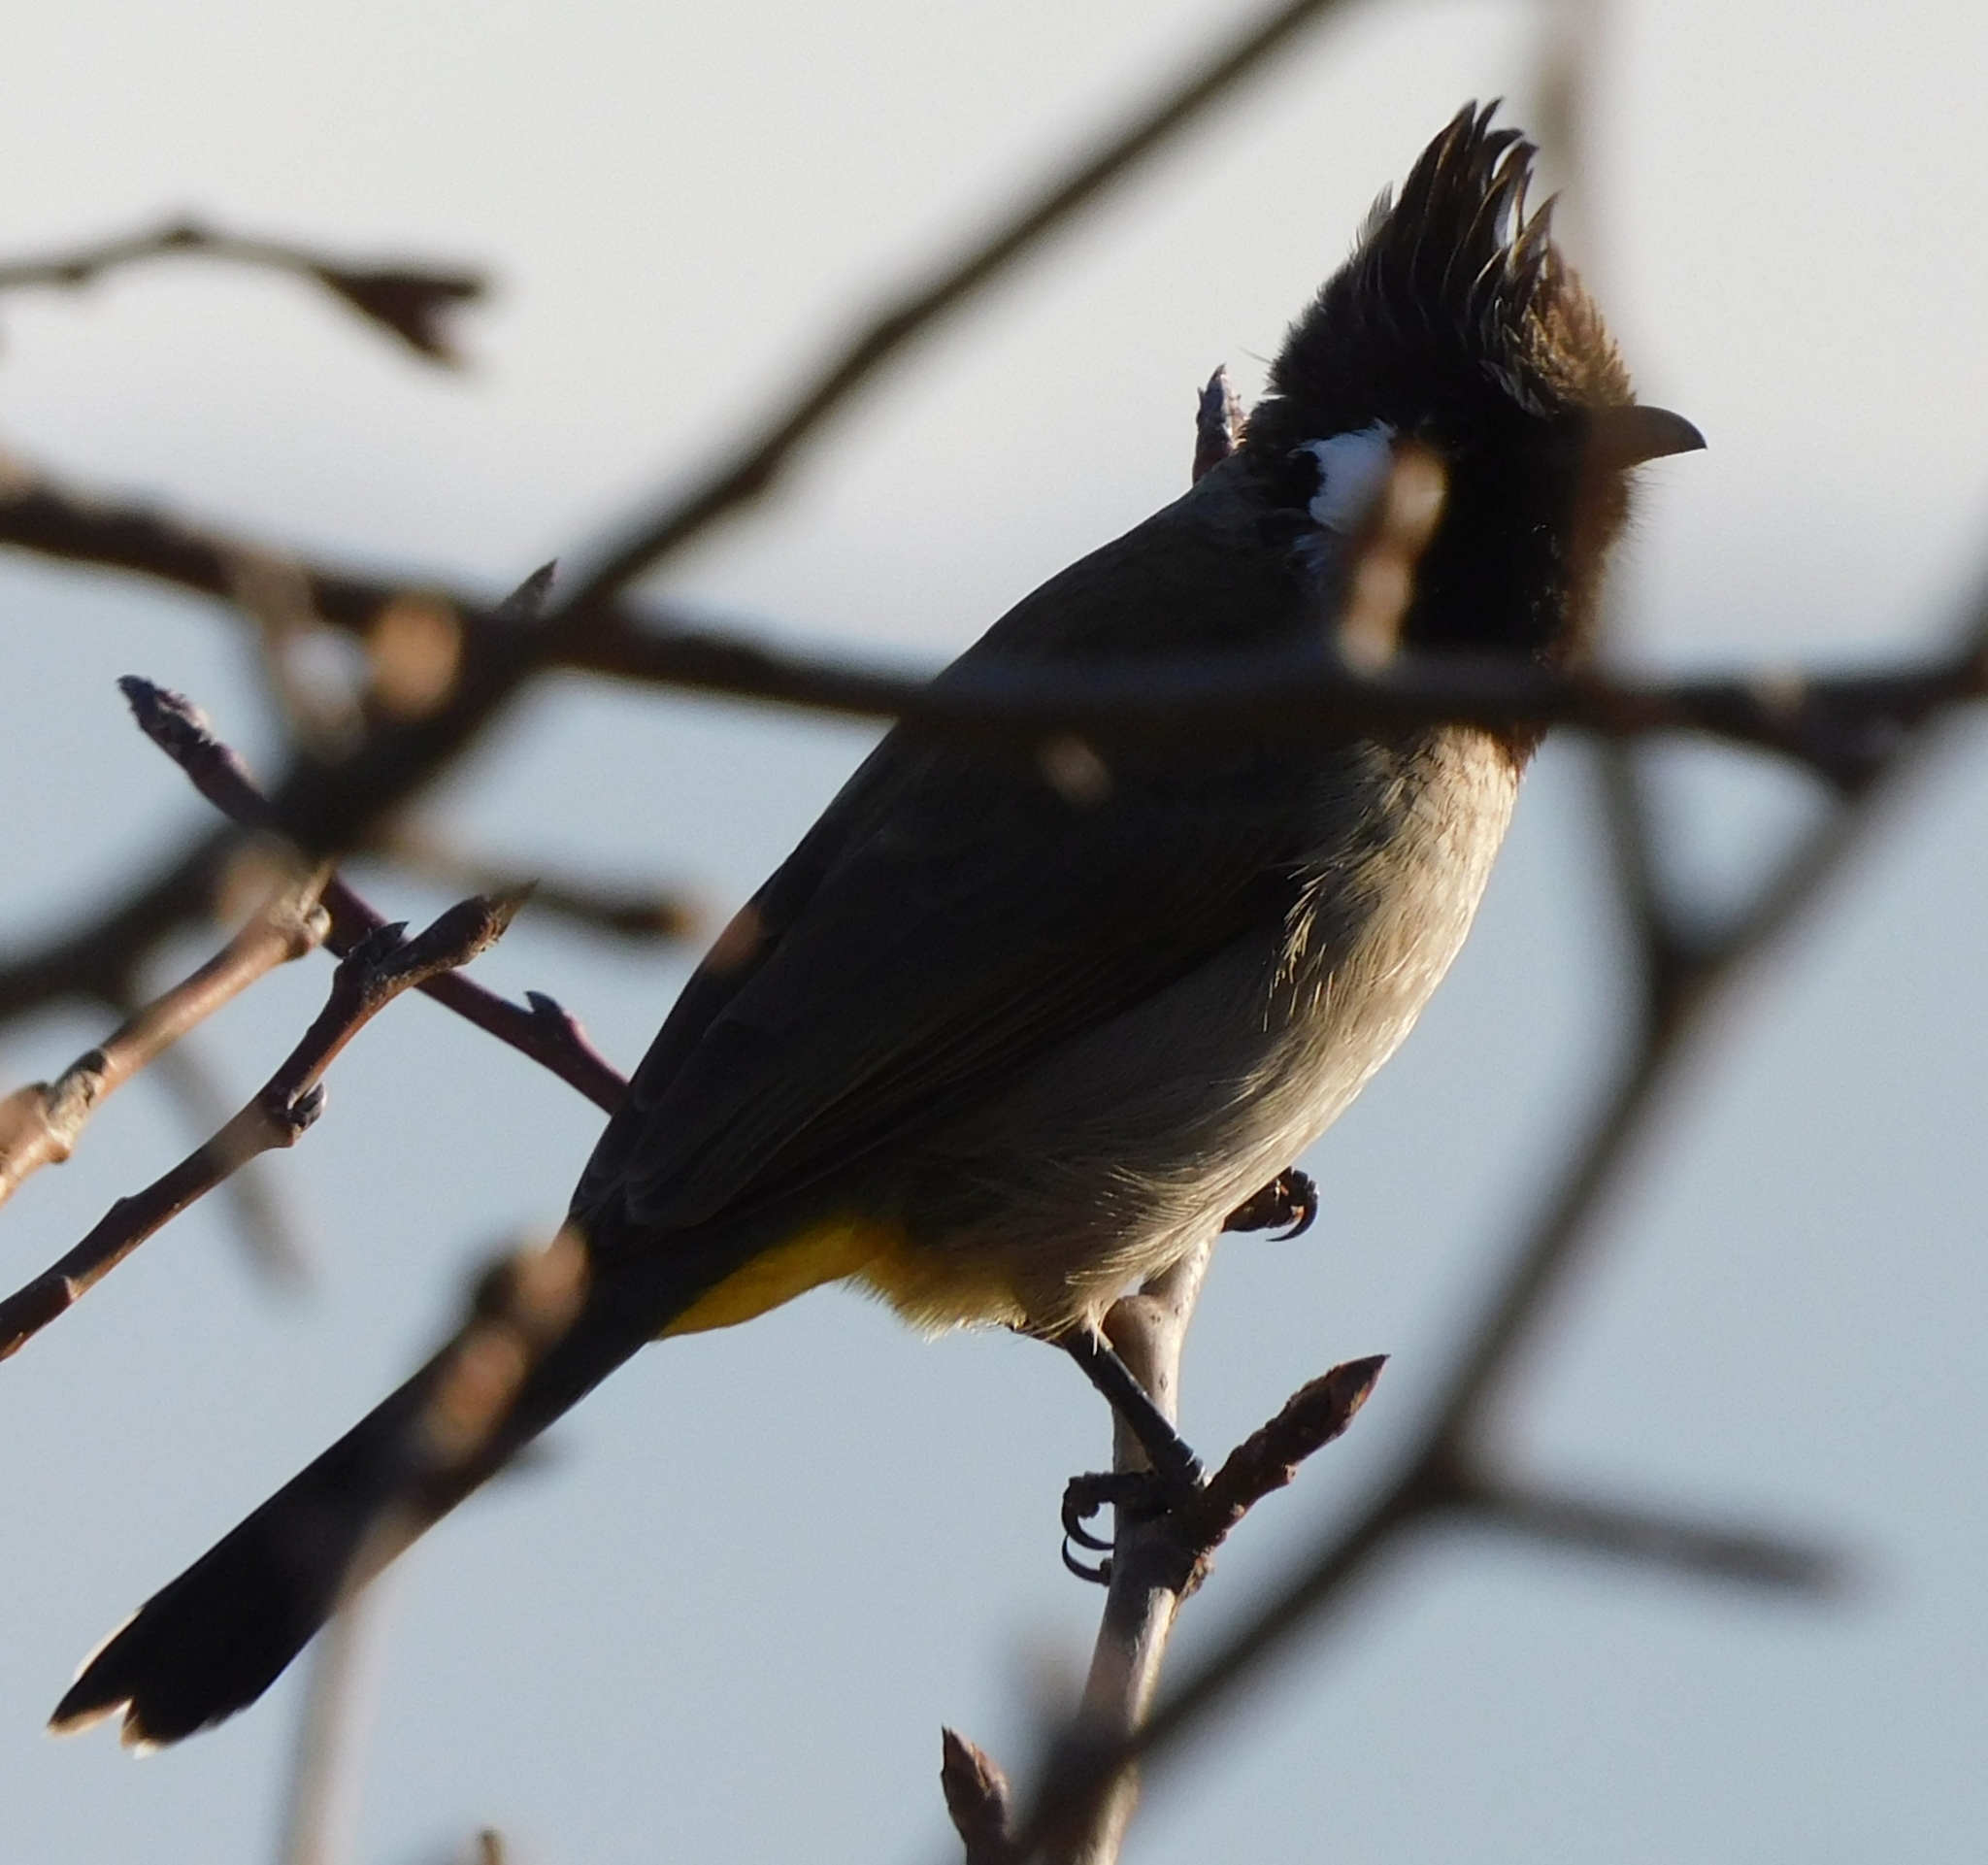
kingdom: Animalia
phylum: Chordata
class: Aves
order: Passeriformes
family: Pycnonotidae
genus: Pycnonotus
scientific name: Pycnonotus leucogenys
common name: Himalayan bulbul
